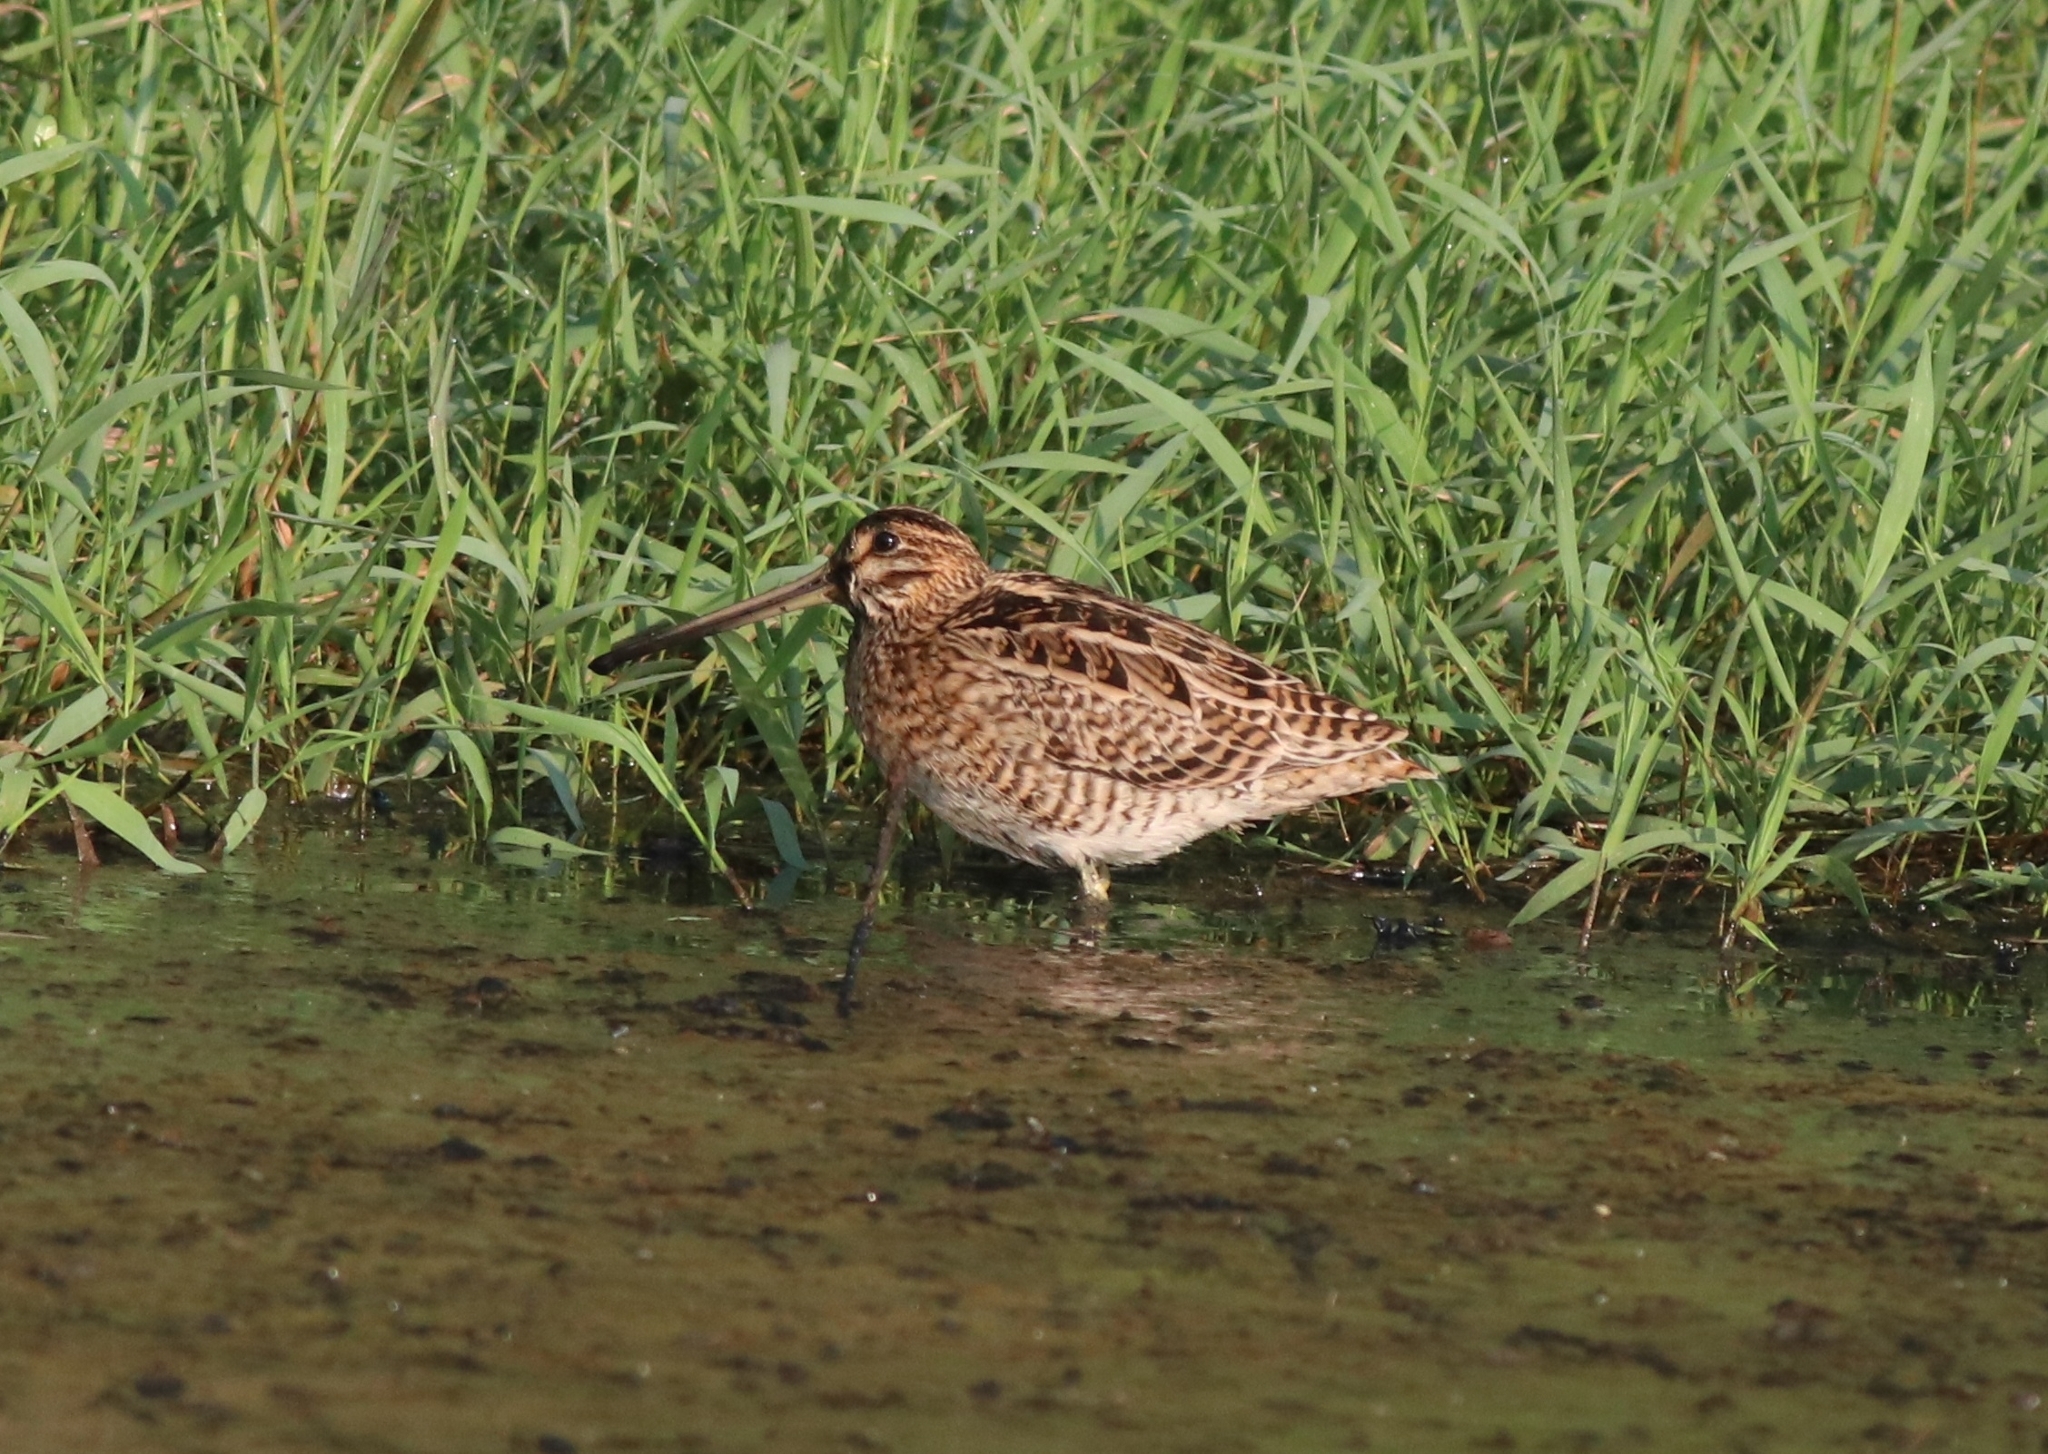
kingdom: Animalia
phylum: Chordata
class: Aves
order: Charadriiformes
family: Scolopacidae
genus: Gallinago
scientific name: Gallinago stenura
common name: Pin-tailed snipe
